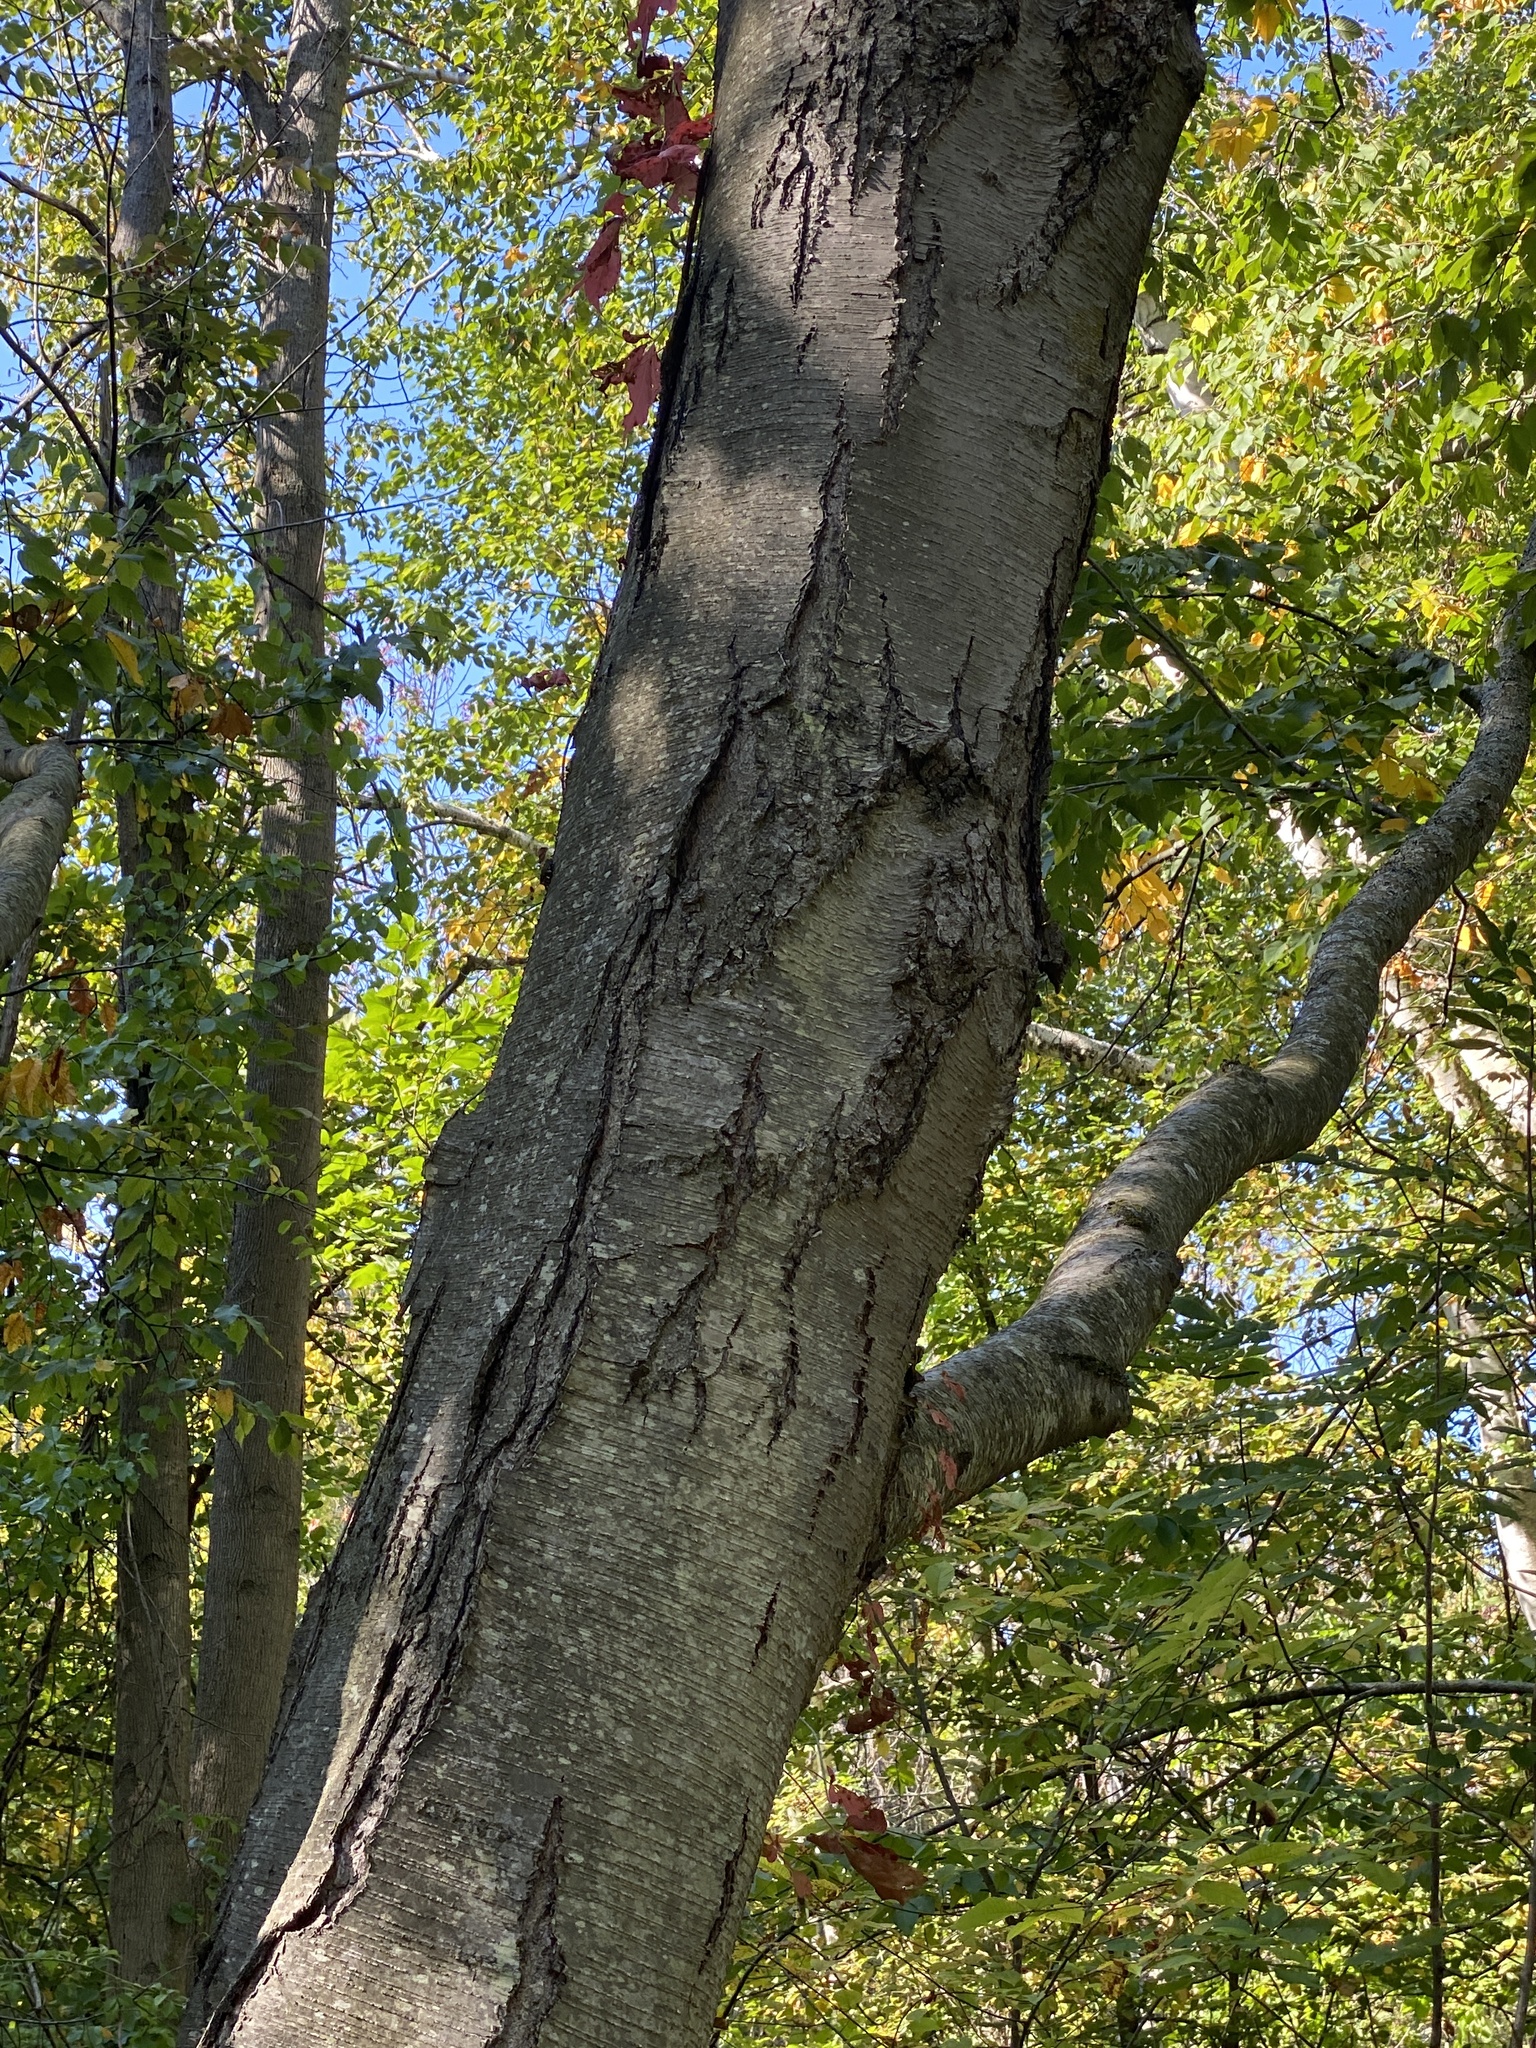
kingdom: Plantae
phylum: Tracheophyta
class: Magnoliopsida
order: Fagales
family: Betulaceae
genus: Betula
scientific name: Betula lenta
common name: Black birch
